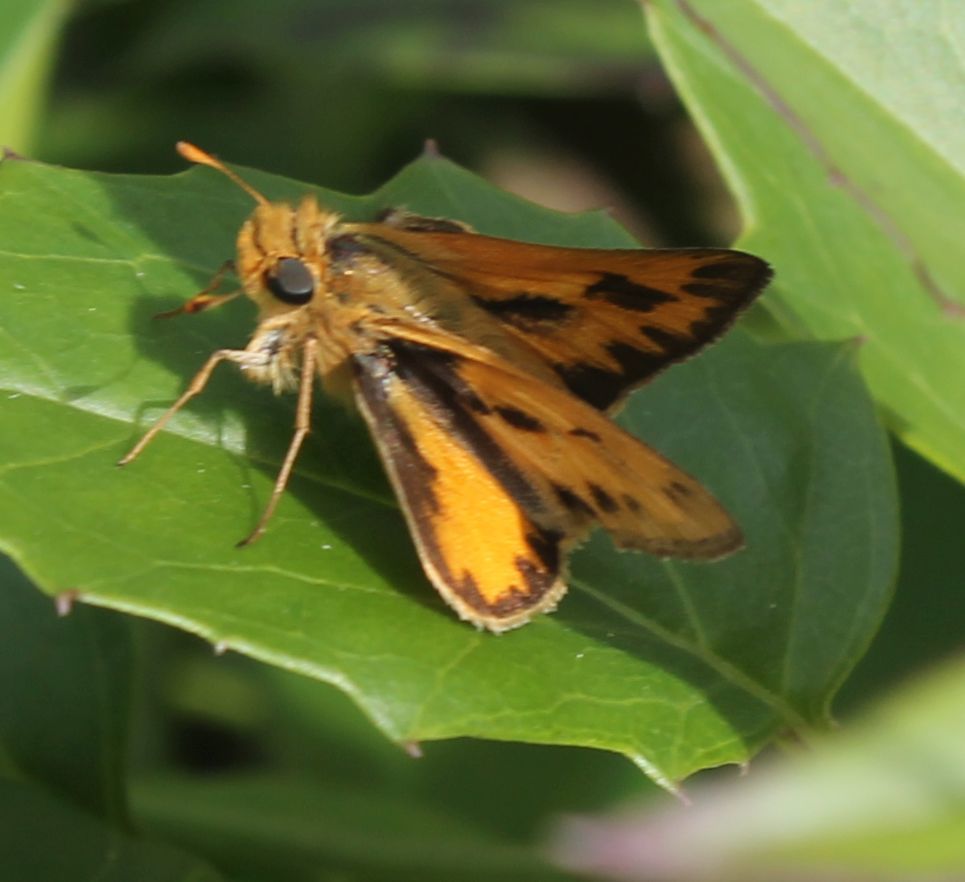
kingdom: Animalia
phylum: Arthropoda
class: Insecta
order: Lepidoptera
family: Hesperiidae
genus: Hylephila
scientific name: Hylephila phyleus
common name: Fiery skipper
